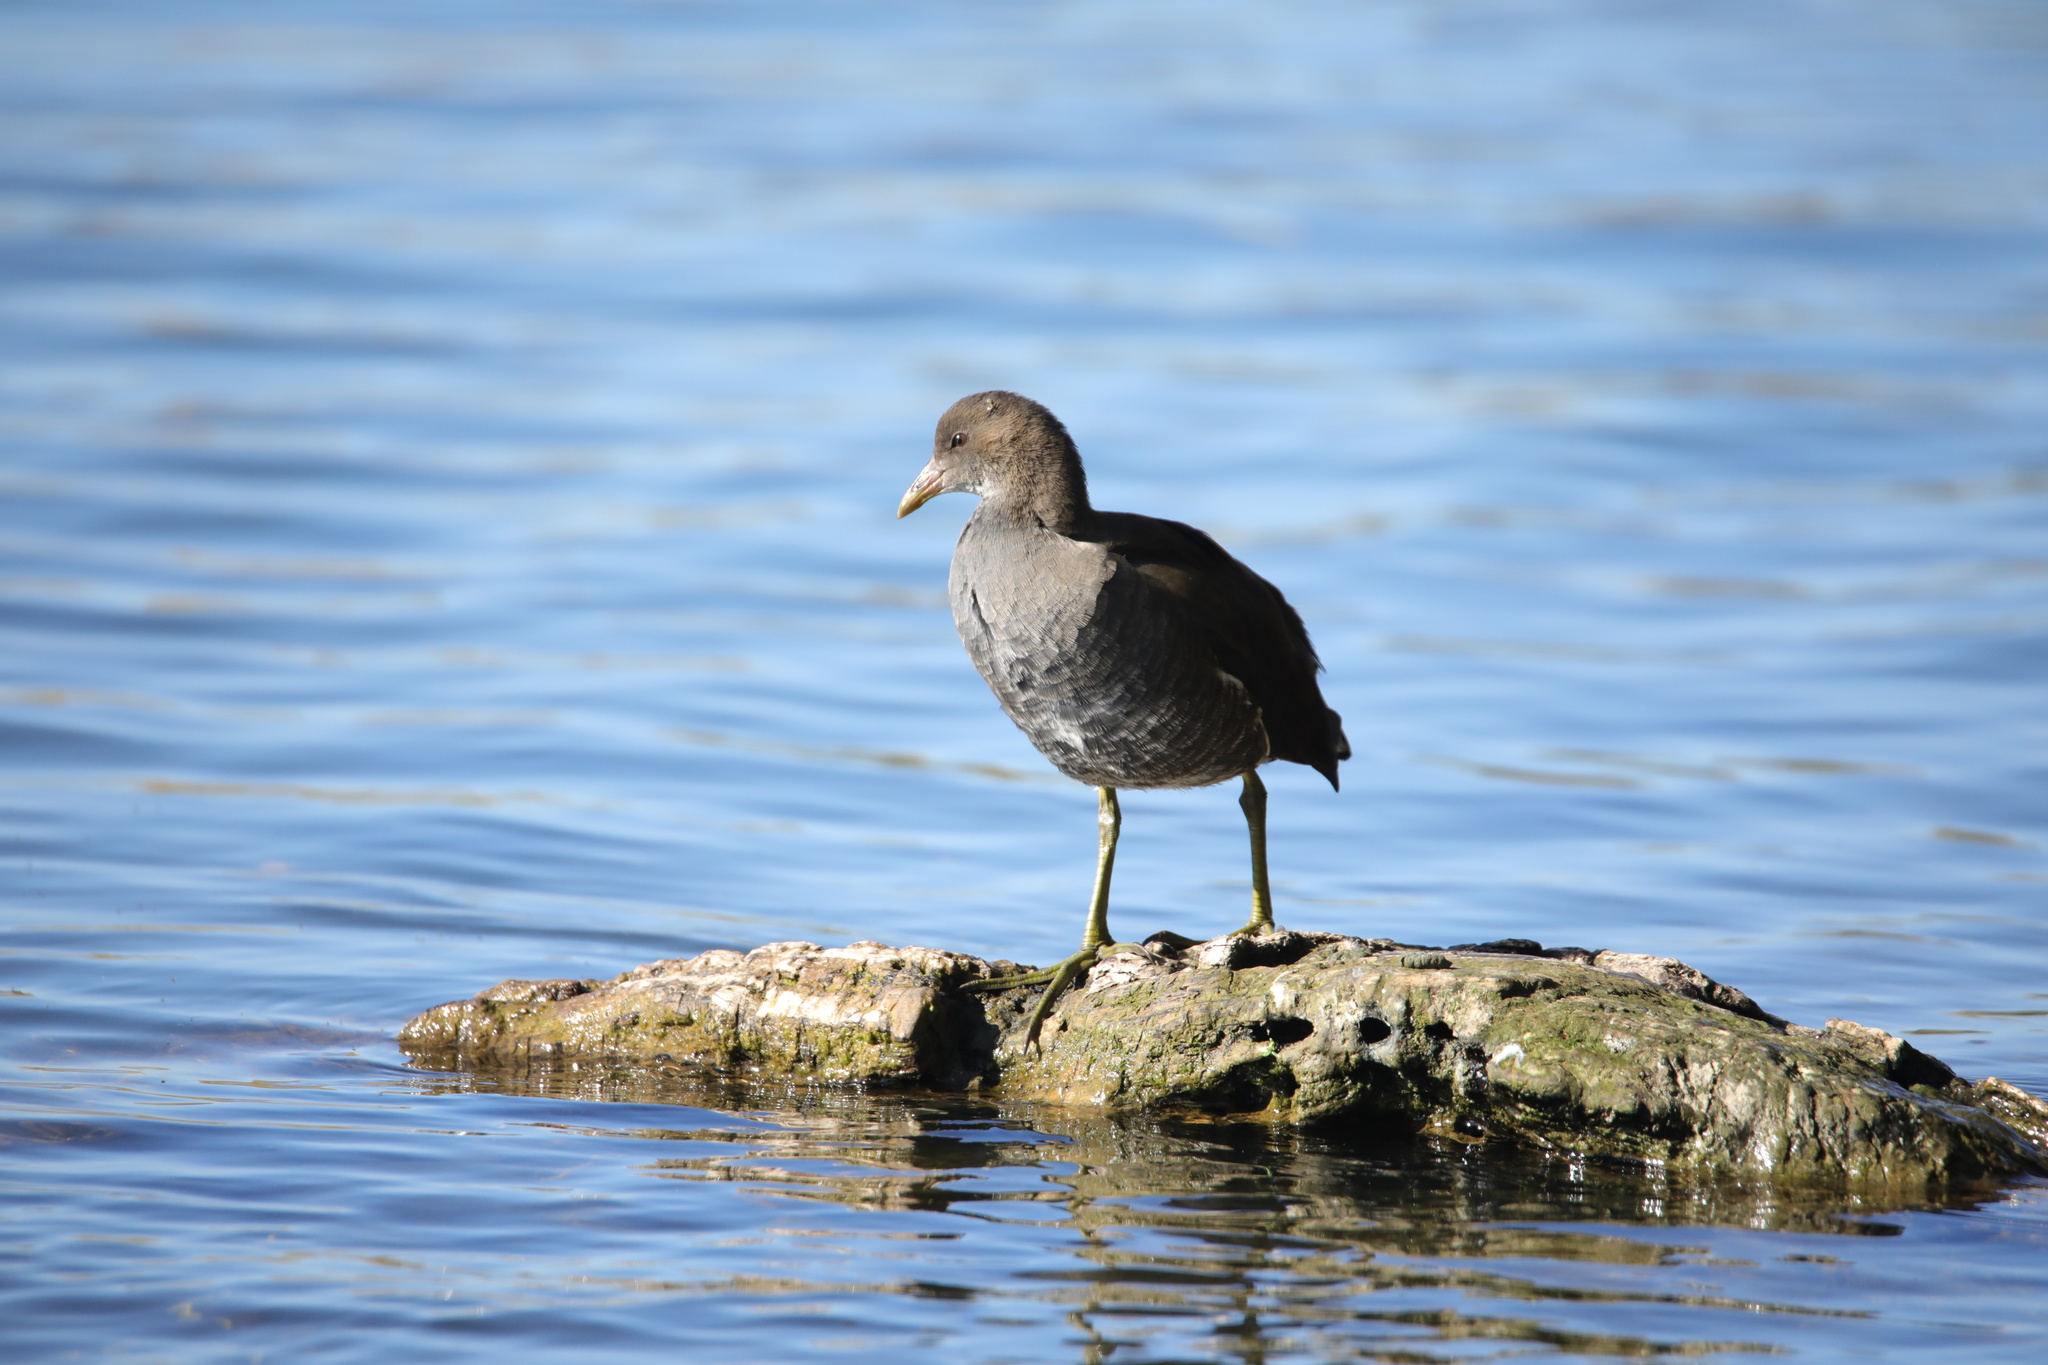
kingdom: Animalia
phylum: Chordata
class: Aves
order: Gruiformes
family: Rallidae
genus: Gallinula
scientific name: Gallinula chloropus
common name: Common moorhen
